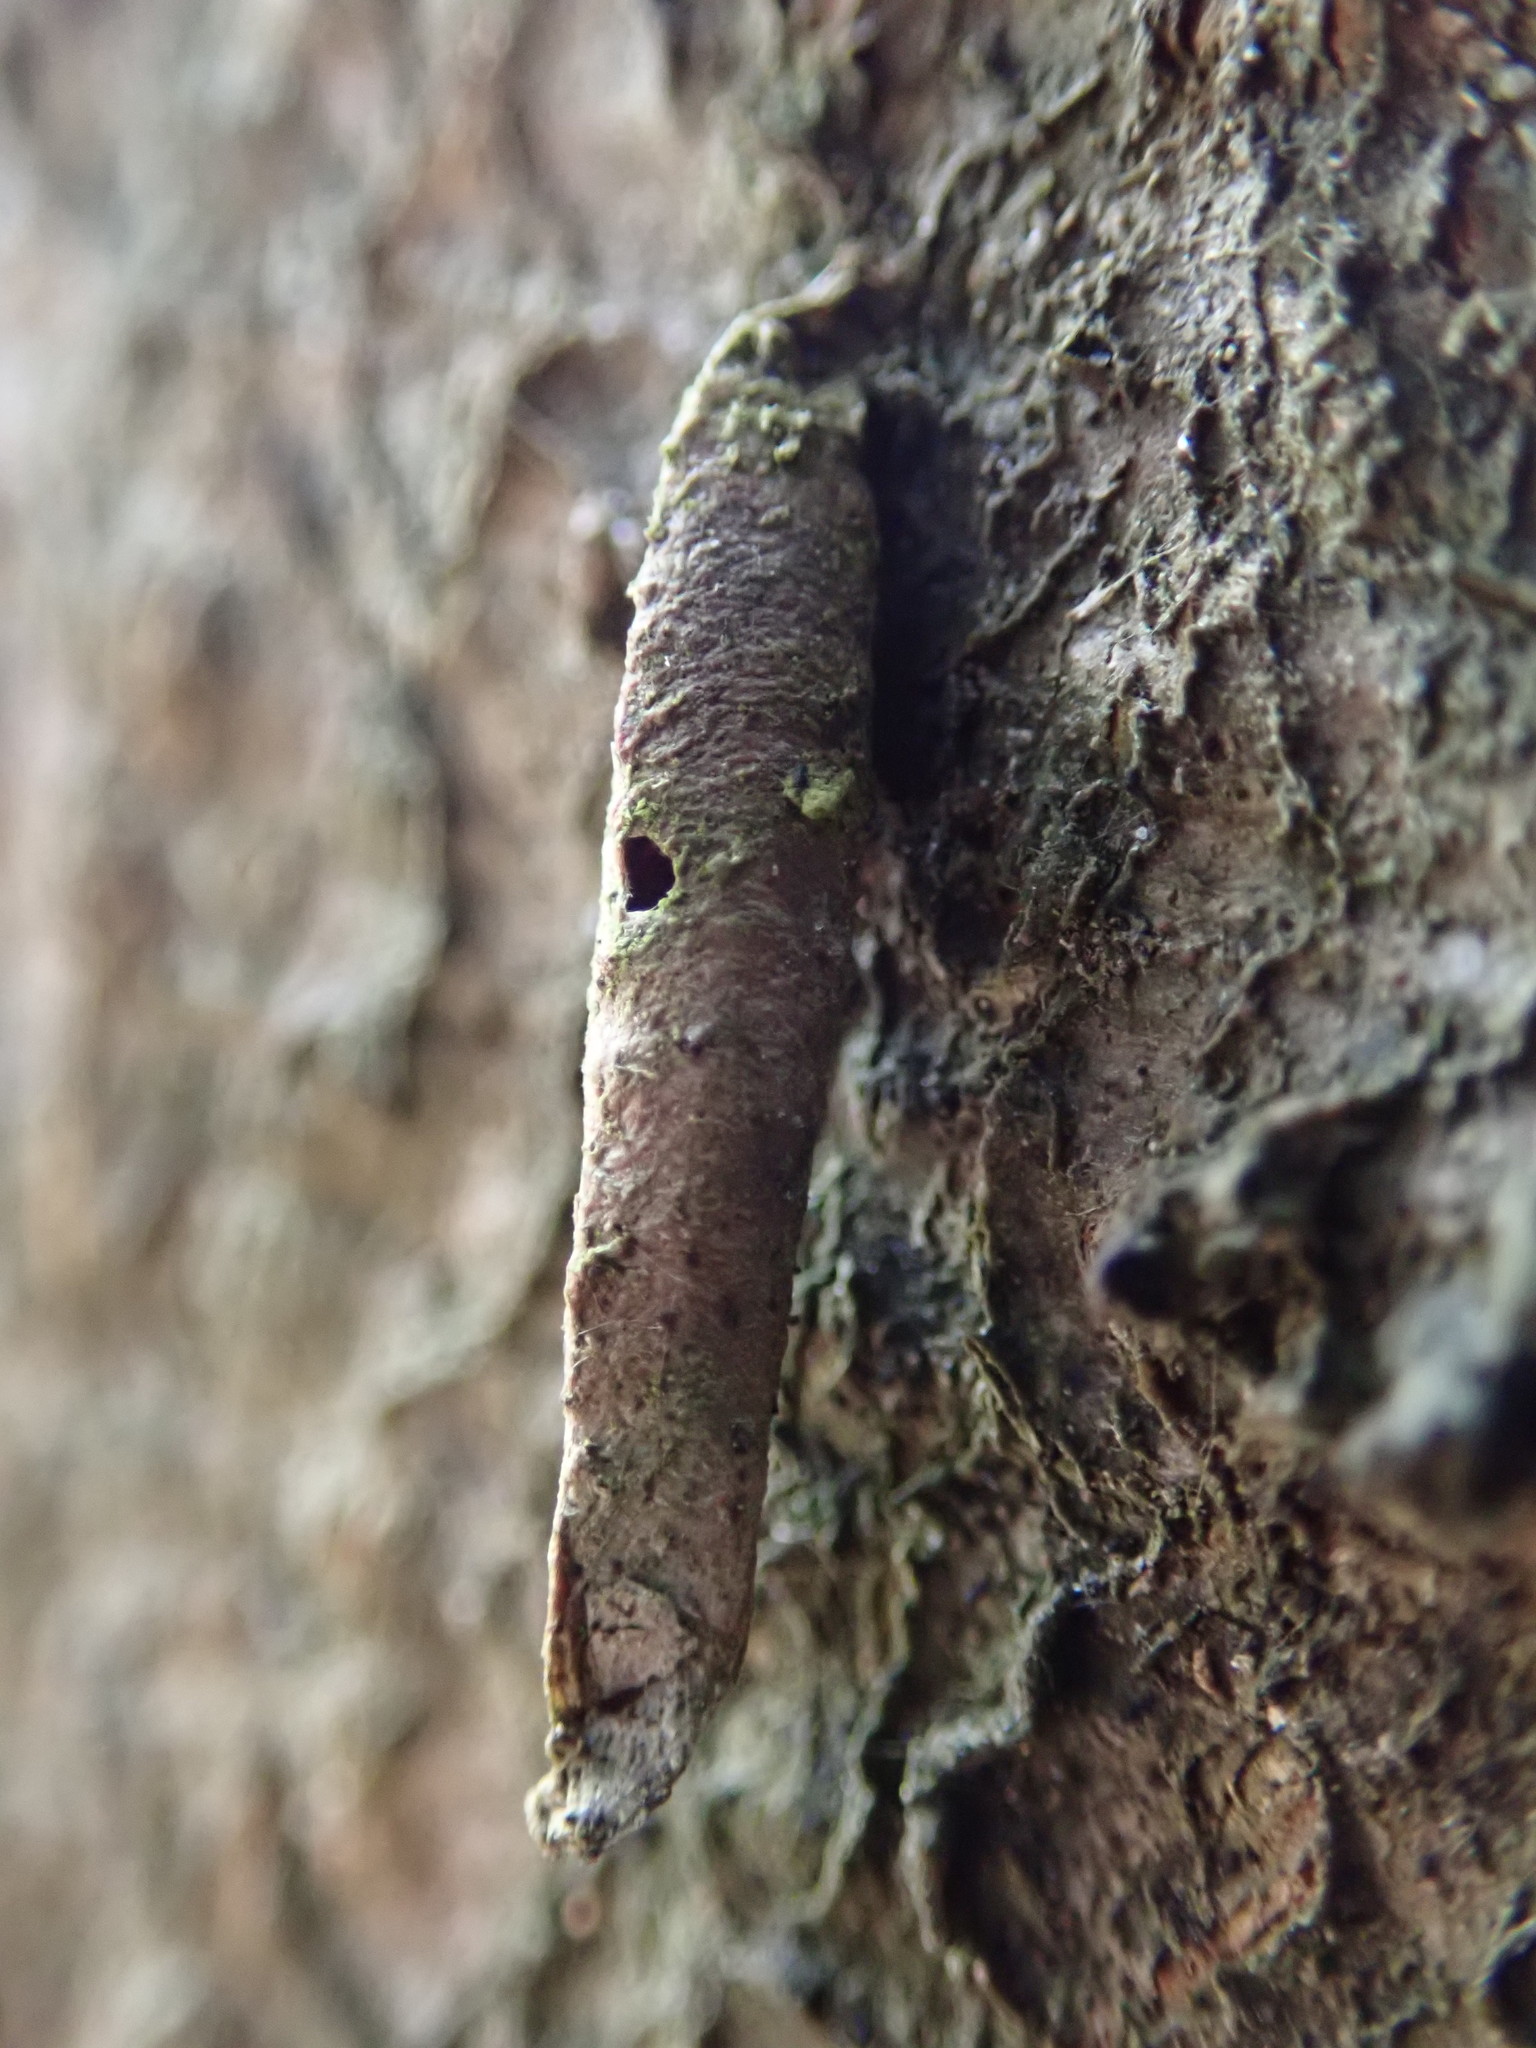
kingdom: Animalia
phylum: Arthropoda
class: Insecta
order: Lepidoptera
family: Psychidae
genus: Taleporia
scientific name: Taleporia tubulosa
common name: Brown smoke
